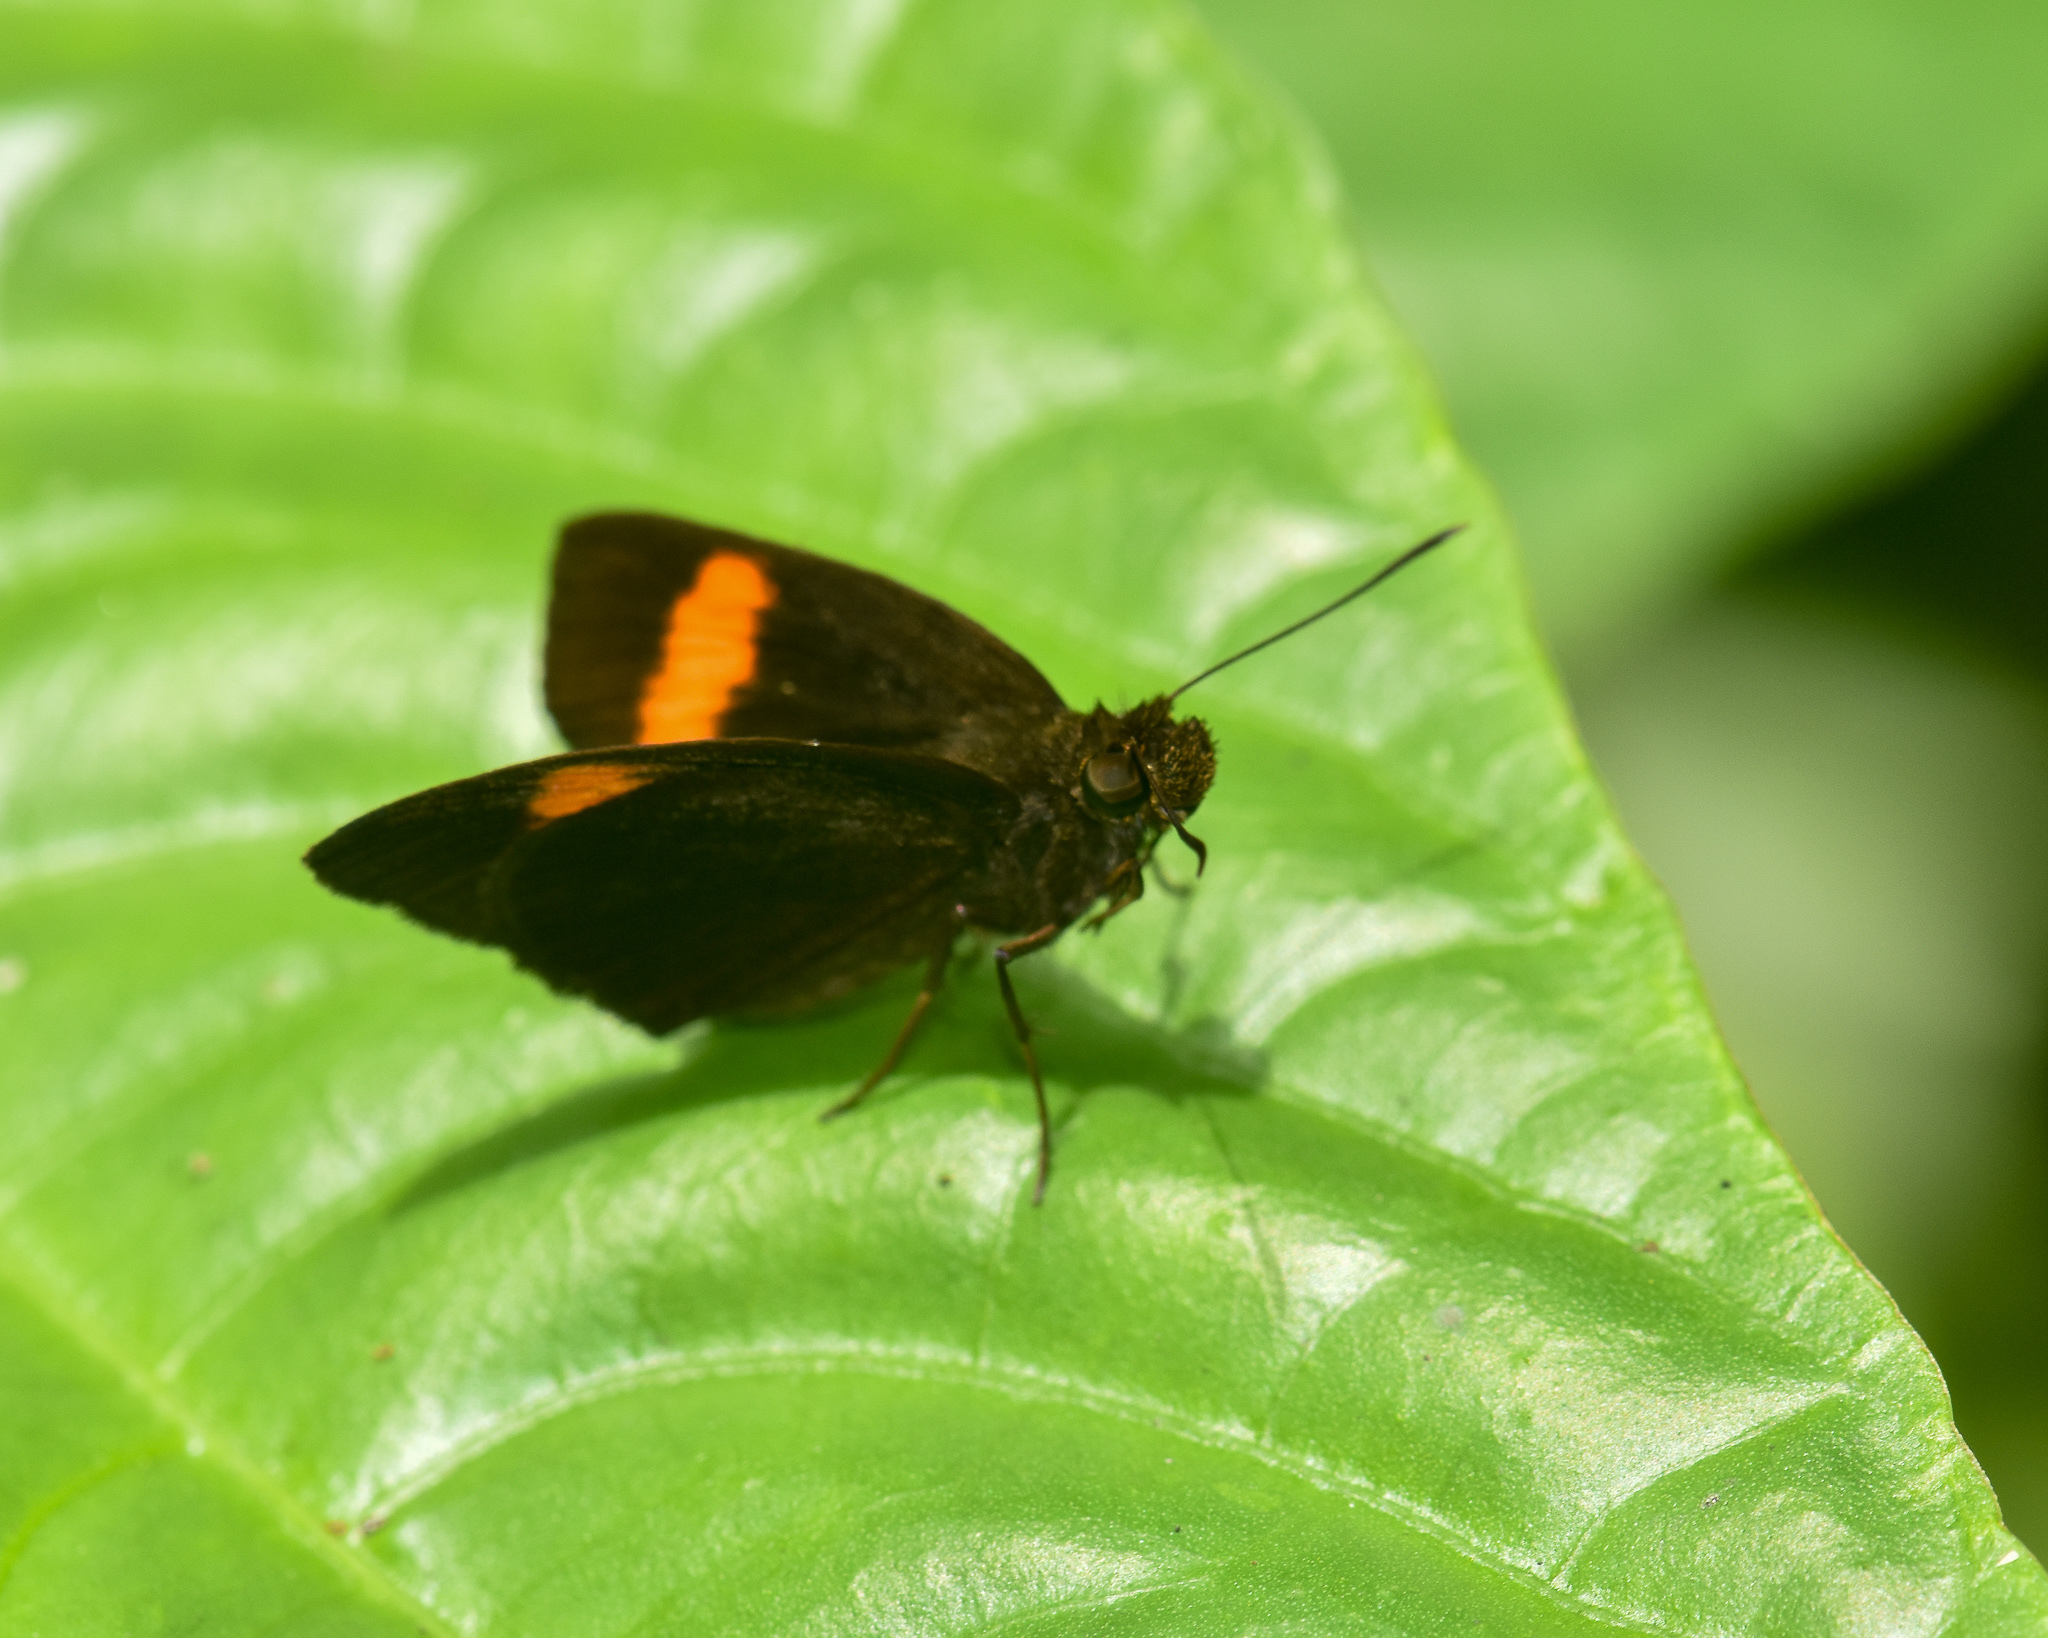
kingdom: Animalia
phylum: Arthropoda
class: Insecta
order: Lepidoptera
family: Hesperiidae
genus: Koruthaialos
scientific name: Koruthaialos sindu
